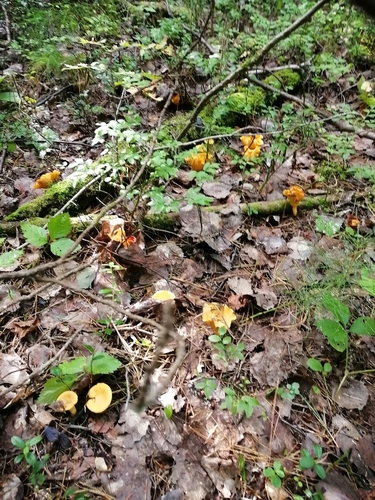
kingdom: Fungi
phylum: Basidiomycota
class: Agaricomycetes
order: Cantharellales
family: Hydnaceae
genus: Cantharellus
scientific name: Cantharellus cibarius
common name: Chanterelle
